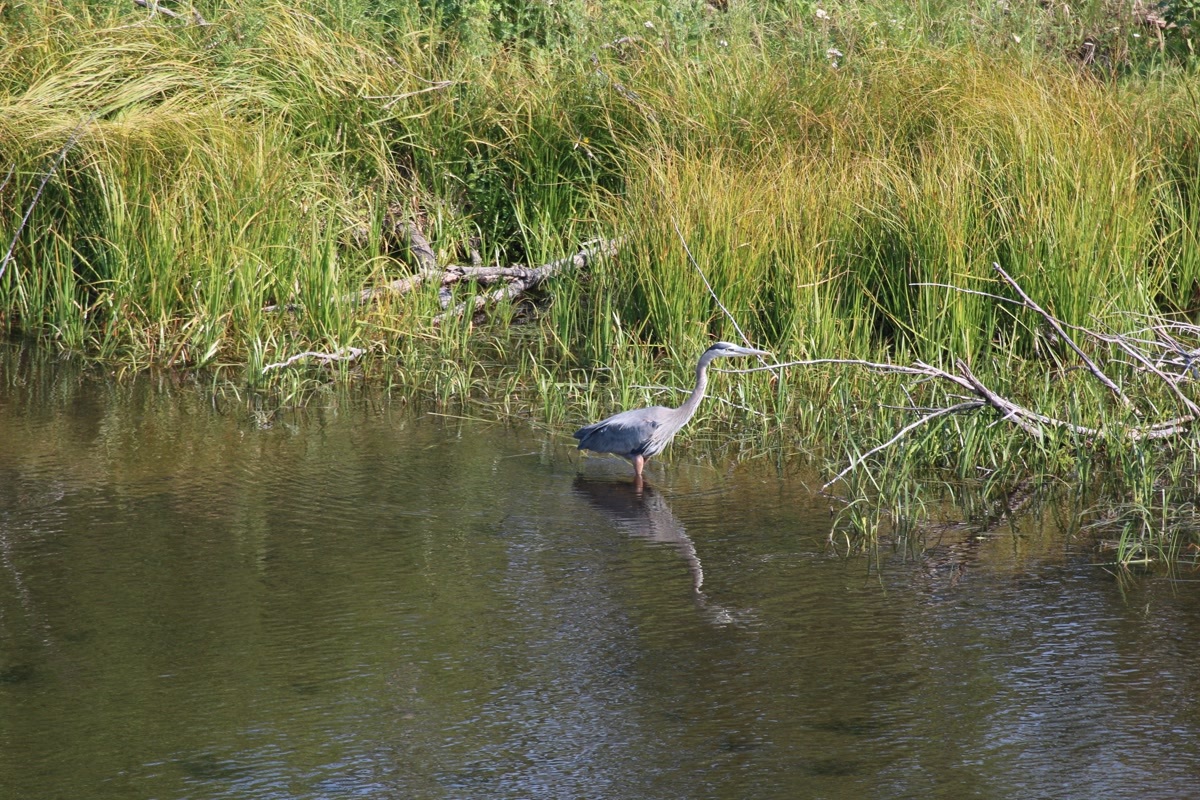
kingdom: Animalia
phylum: Chordata
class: Aves
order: Pelecaniformes
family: Ardeidae
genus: Ardea
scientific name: Ardea herodias
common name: Great blue heron
